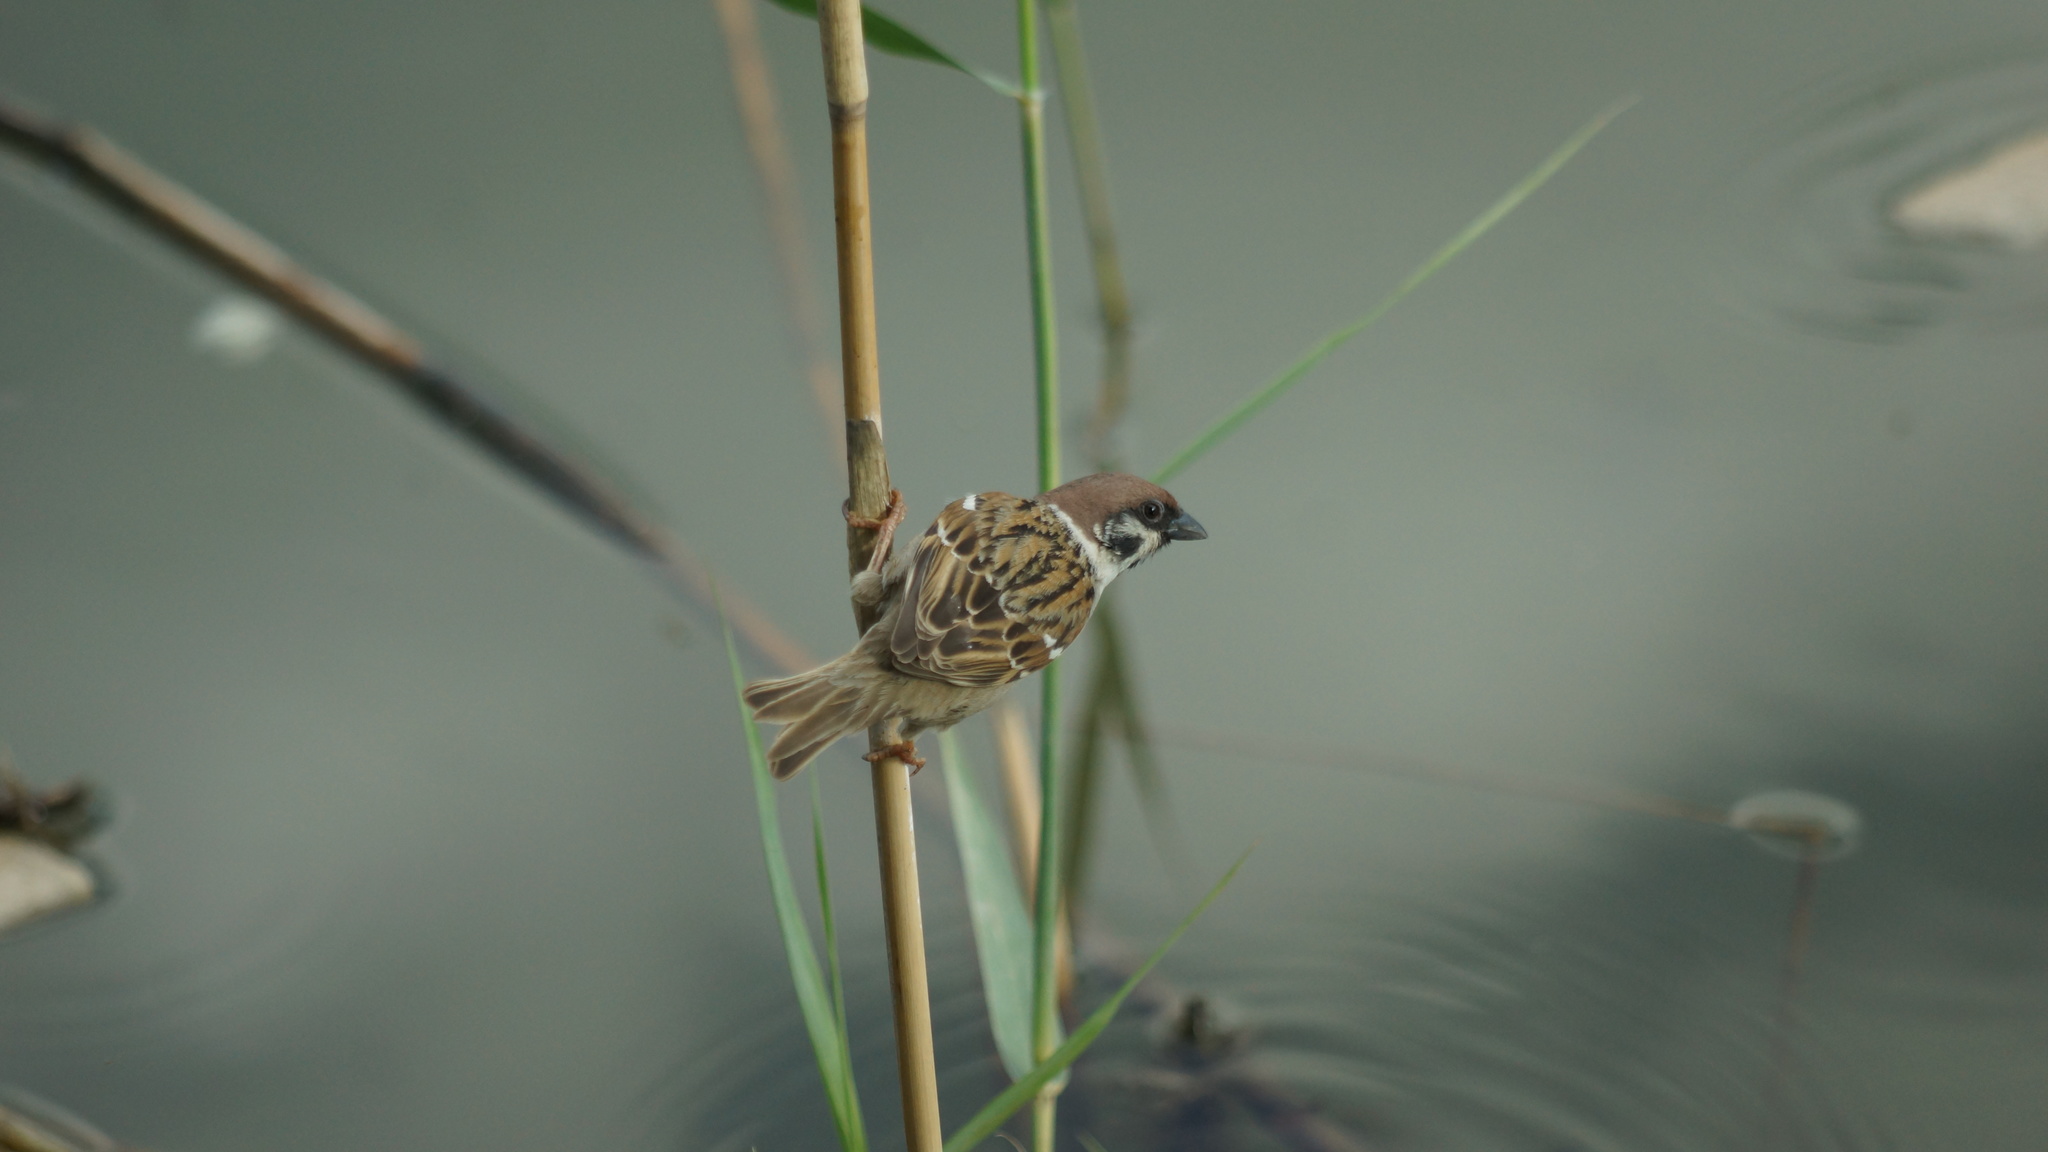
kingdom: Animalia
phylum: Chordata
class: Aves
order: Passeriformes
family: Passeridae
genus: Passer
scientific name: Passer montanus
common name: Eurasian tree sparrow
